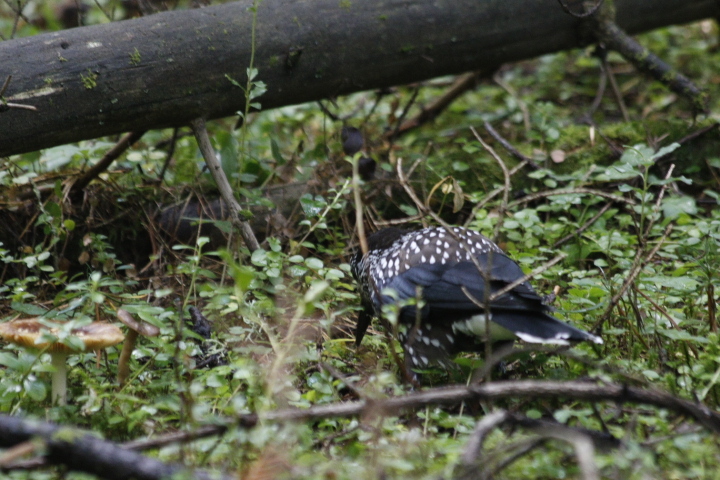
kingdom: Animalia
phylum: Chordata
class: Aves
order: Passeriformes
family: Corvidae
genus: Nucifraga
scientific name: Nucifraga caryocatactes
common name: Spotted nutcracker
